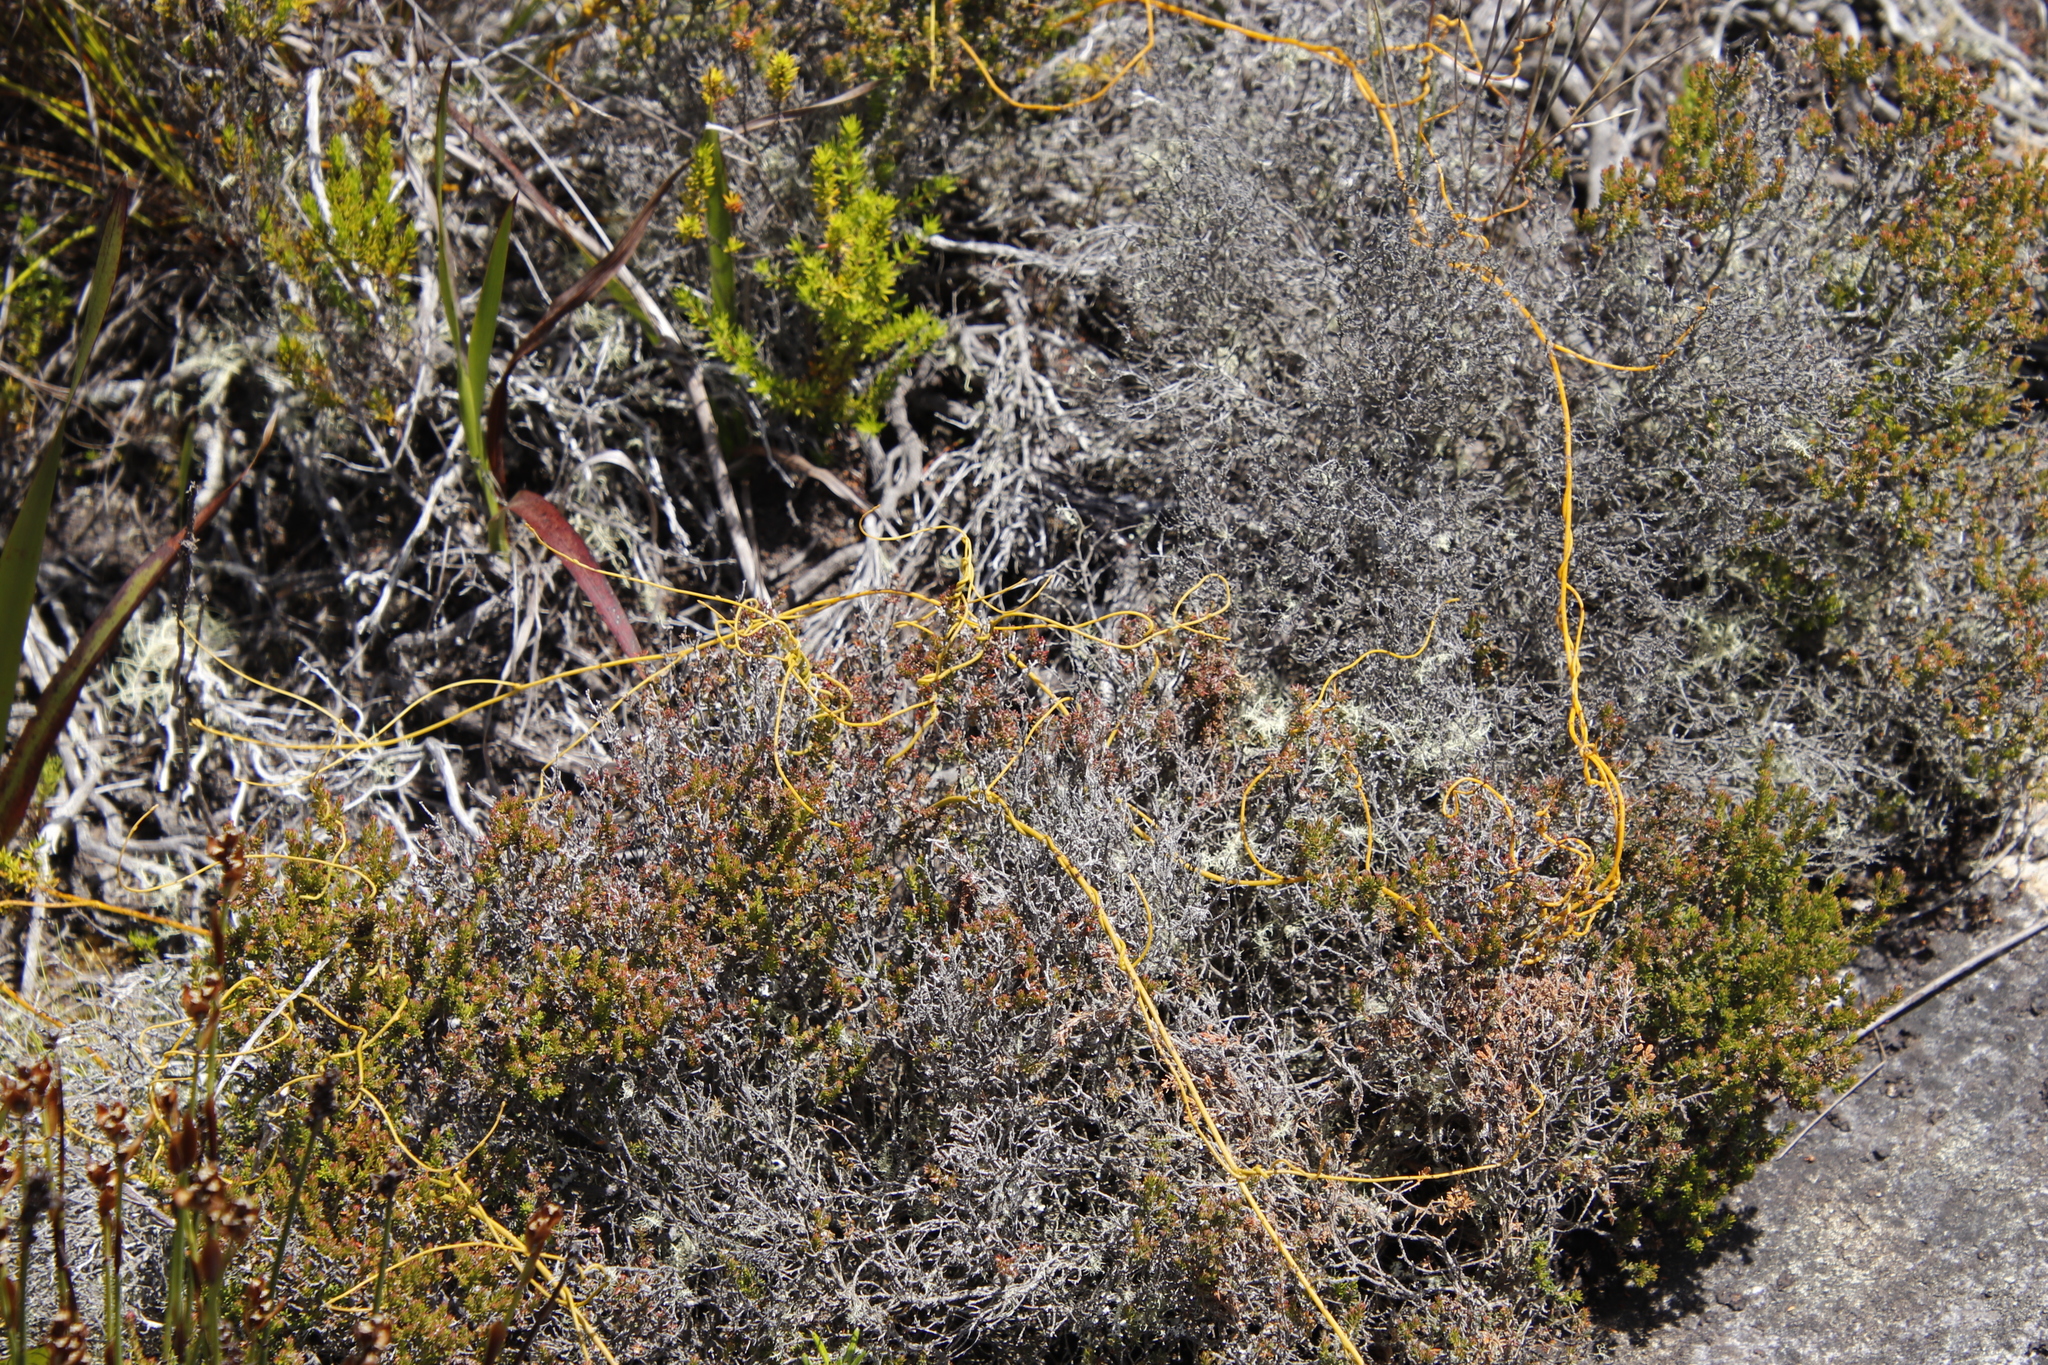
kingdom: Plantae
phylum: Tracheophyta
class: Magnoliopsida
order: Laurales
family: Lauraceae
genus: Cassytha
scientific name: Cassytha ciliolata
